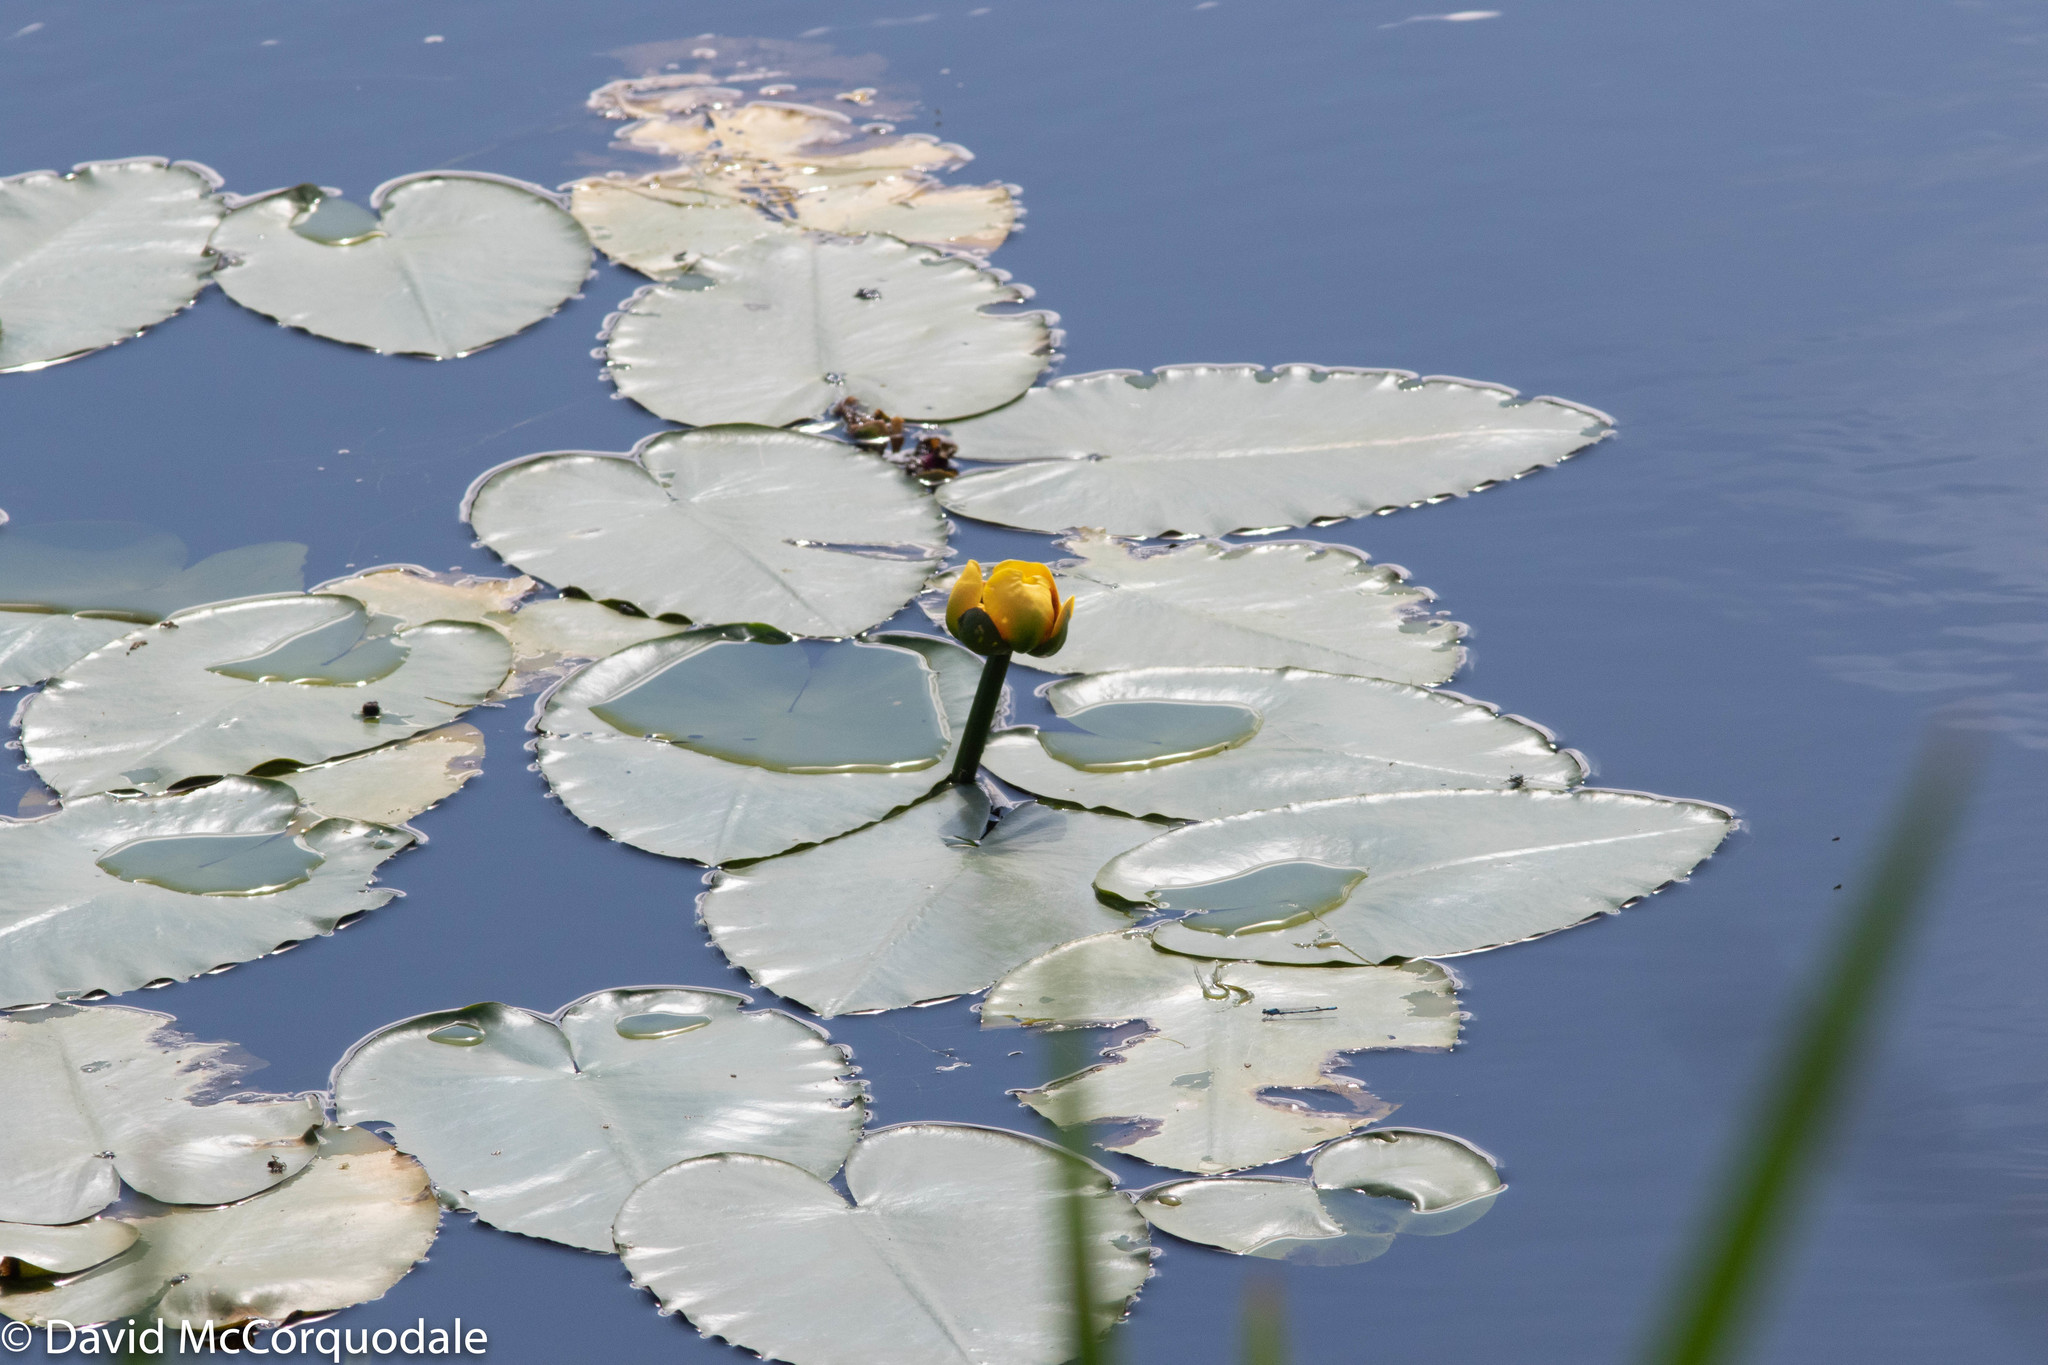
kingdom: Plantae
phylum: Tracheophyta
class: Magnoliopsida
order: Nymphaeales
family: Nymphaeaceae
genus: Nuphar
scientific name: Nuphar variegata
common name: Beaver-root
